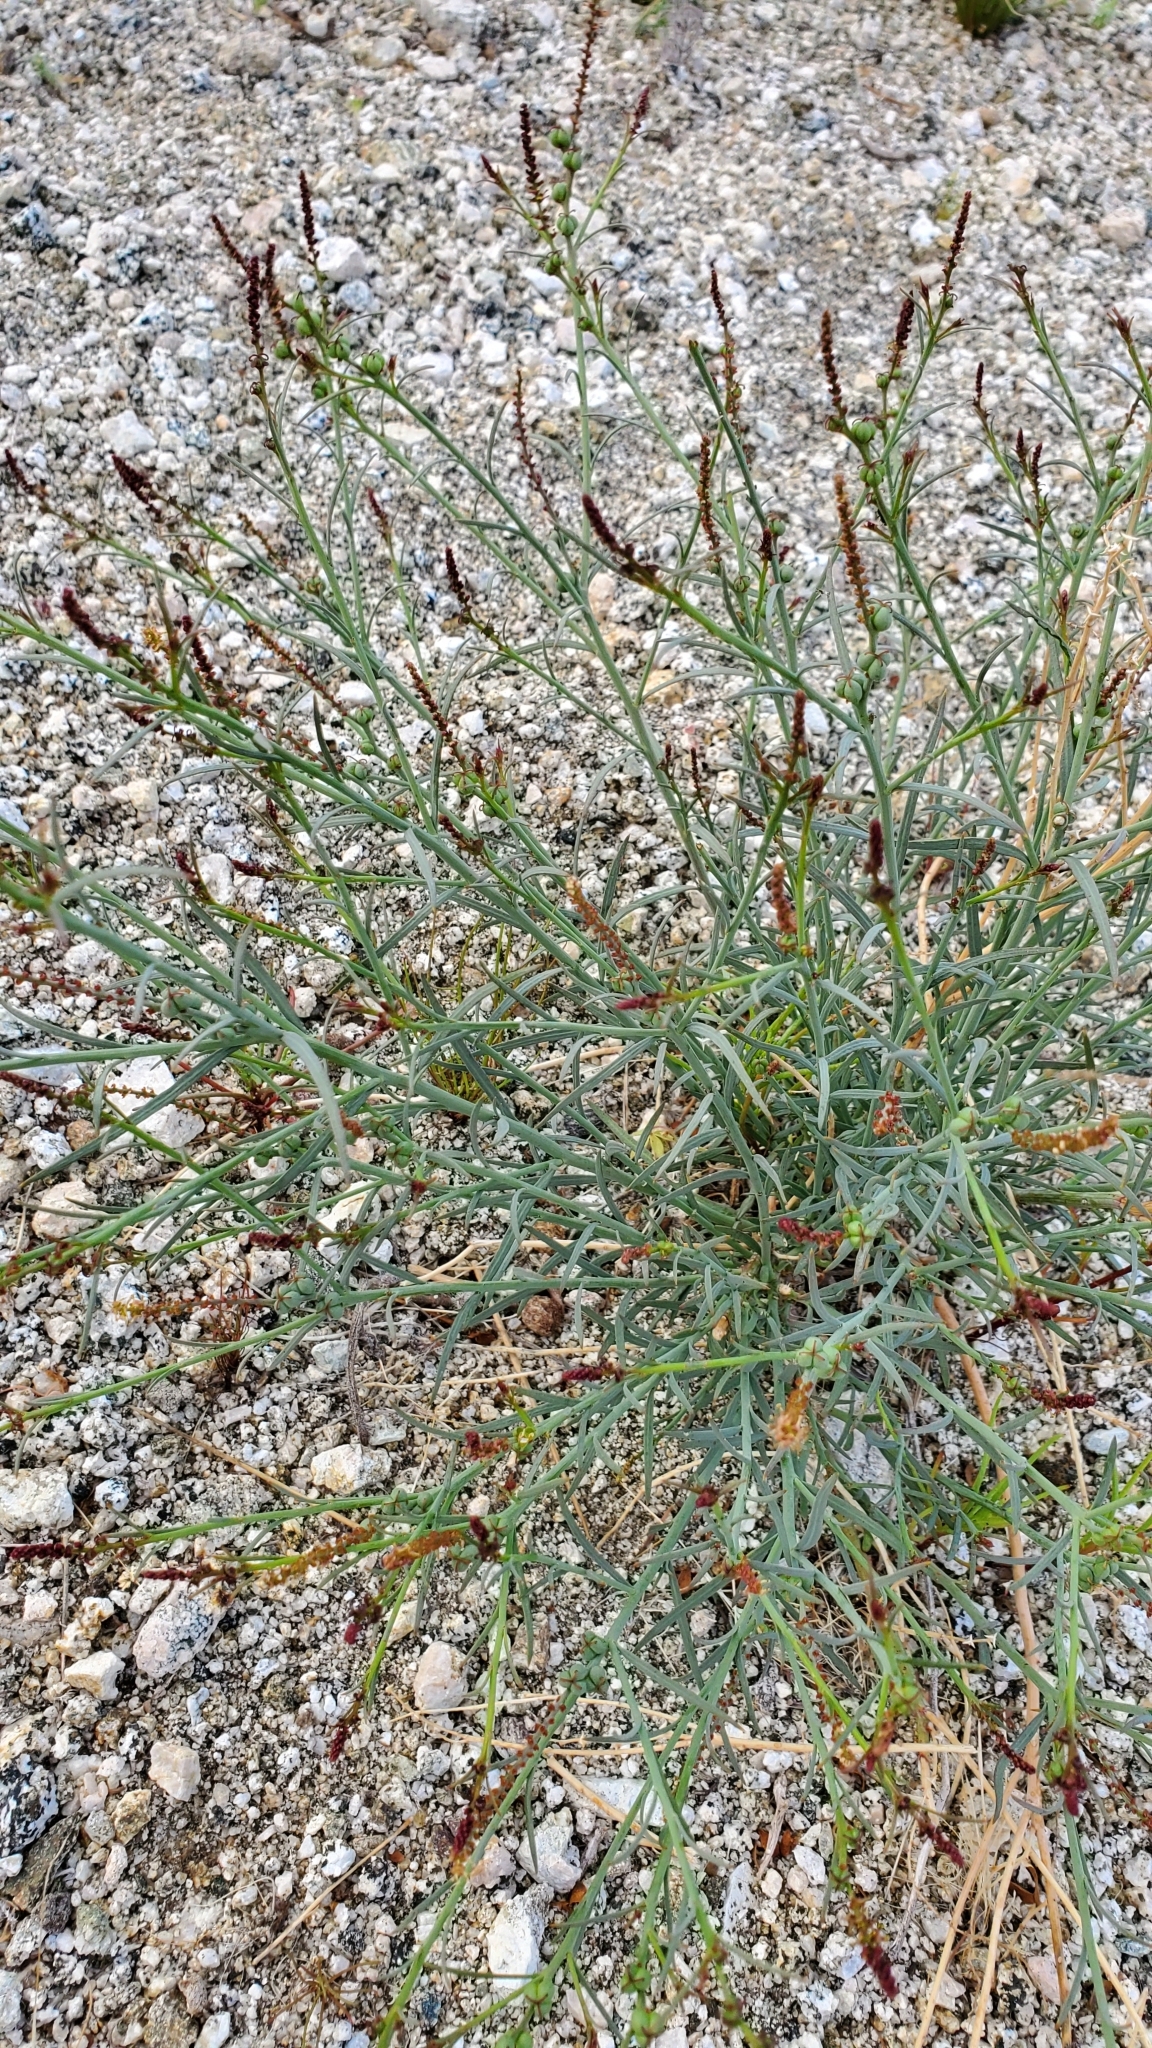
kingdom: Plantae
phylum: Tracheophyta
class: Magnoliopsida
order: Malpighiales
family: Euphorbiaceae
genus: Stillingia
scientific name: Stillingia linearifolia
